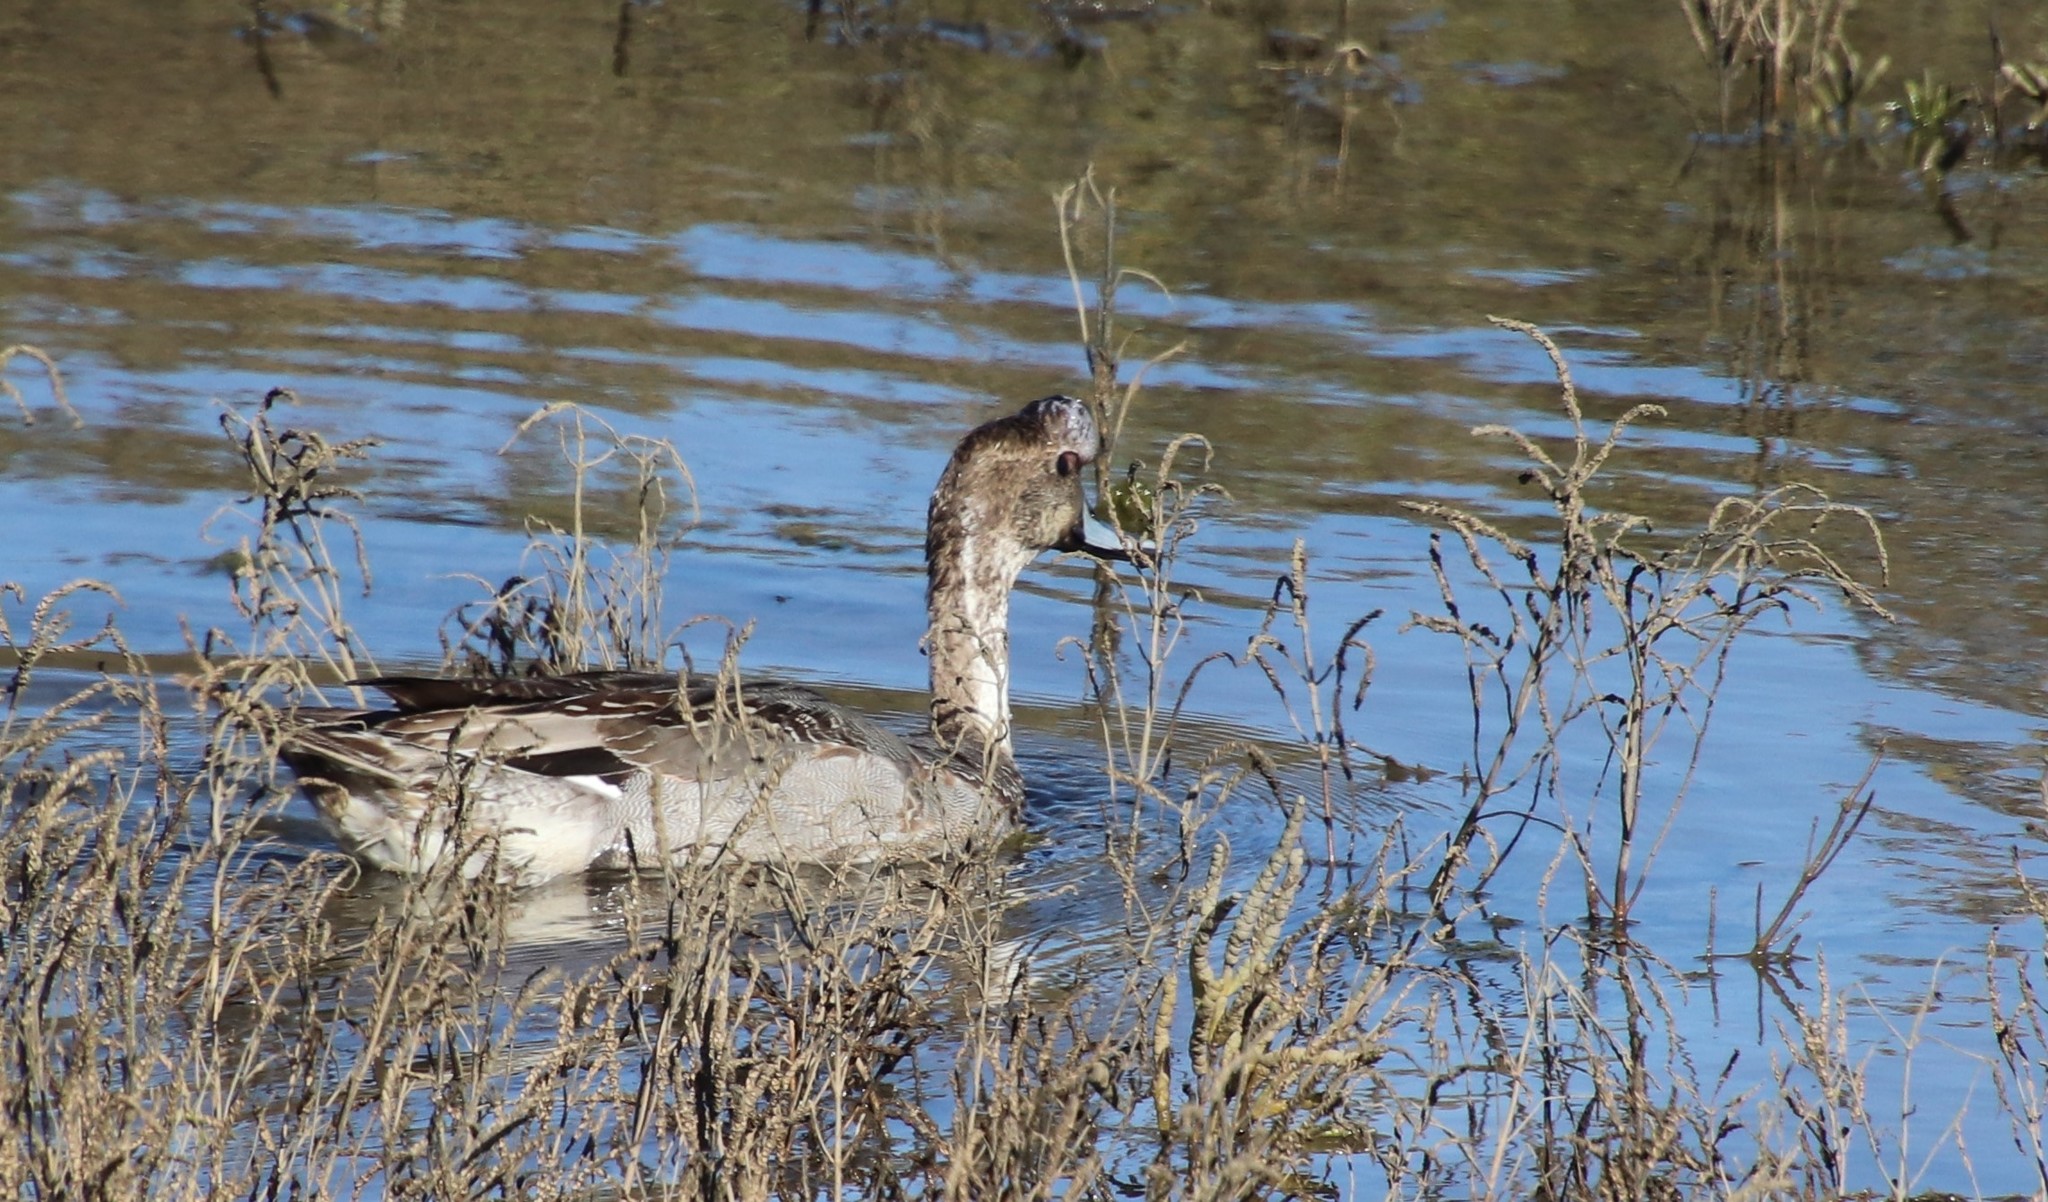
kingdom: Animalia
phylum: Chordata
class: Aves
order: Anseriformes
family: Anatidae
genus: Anas
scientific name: Anas acuta
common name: Northern pintail
